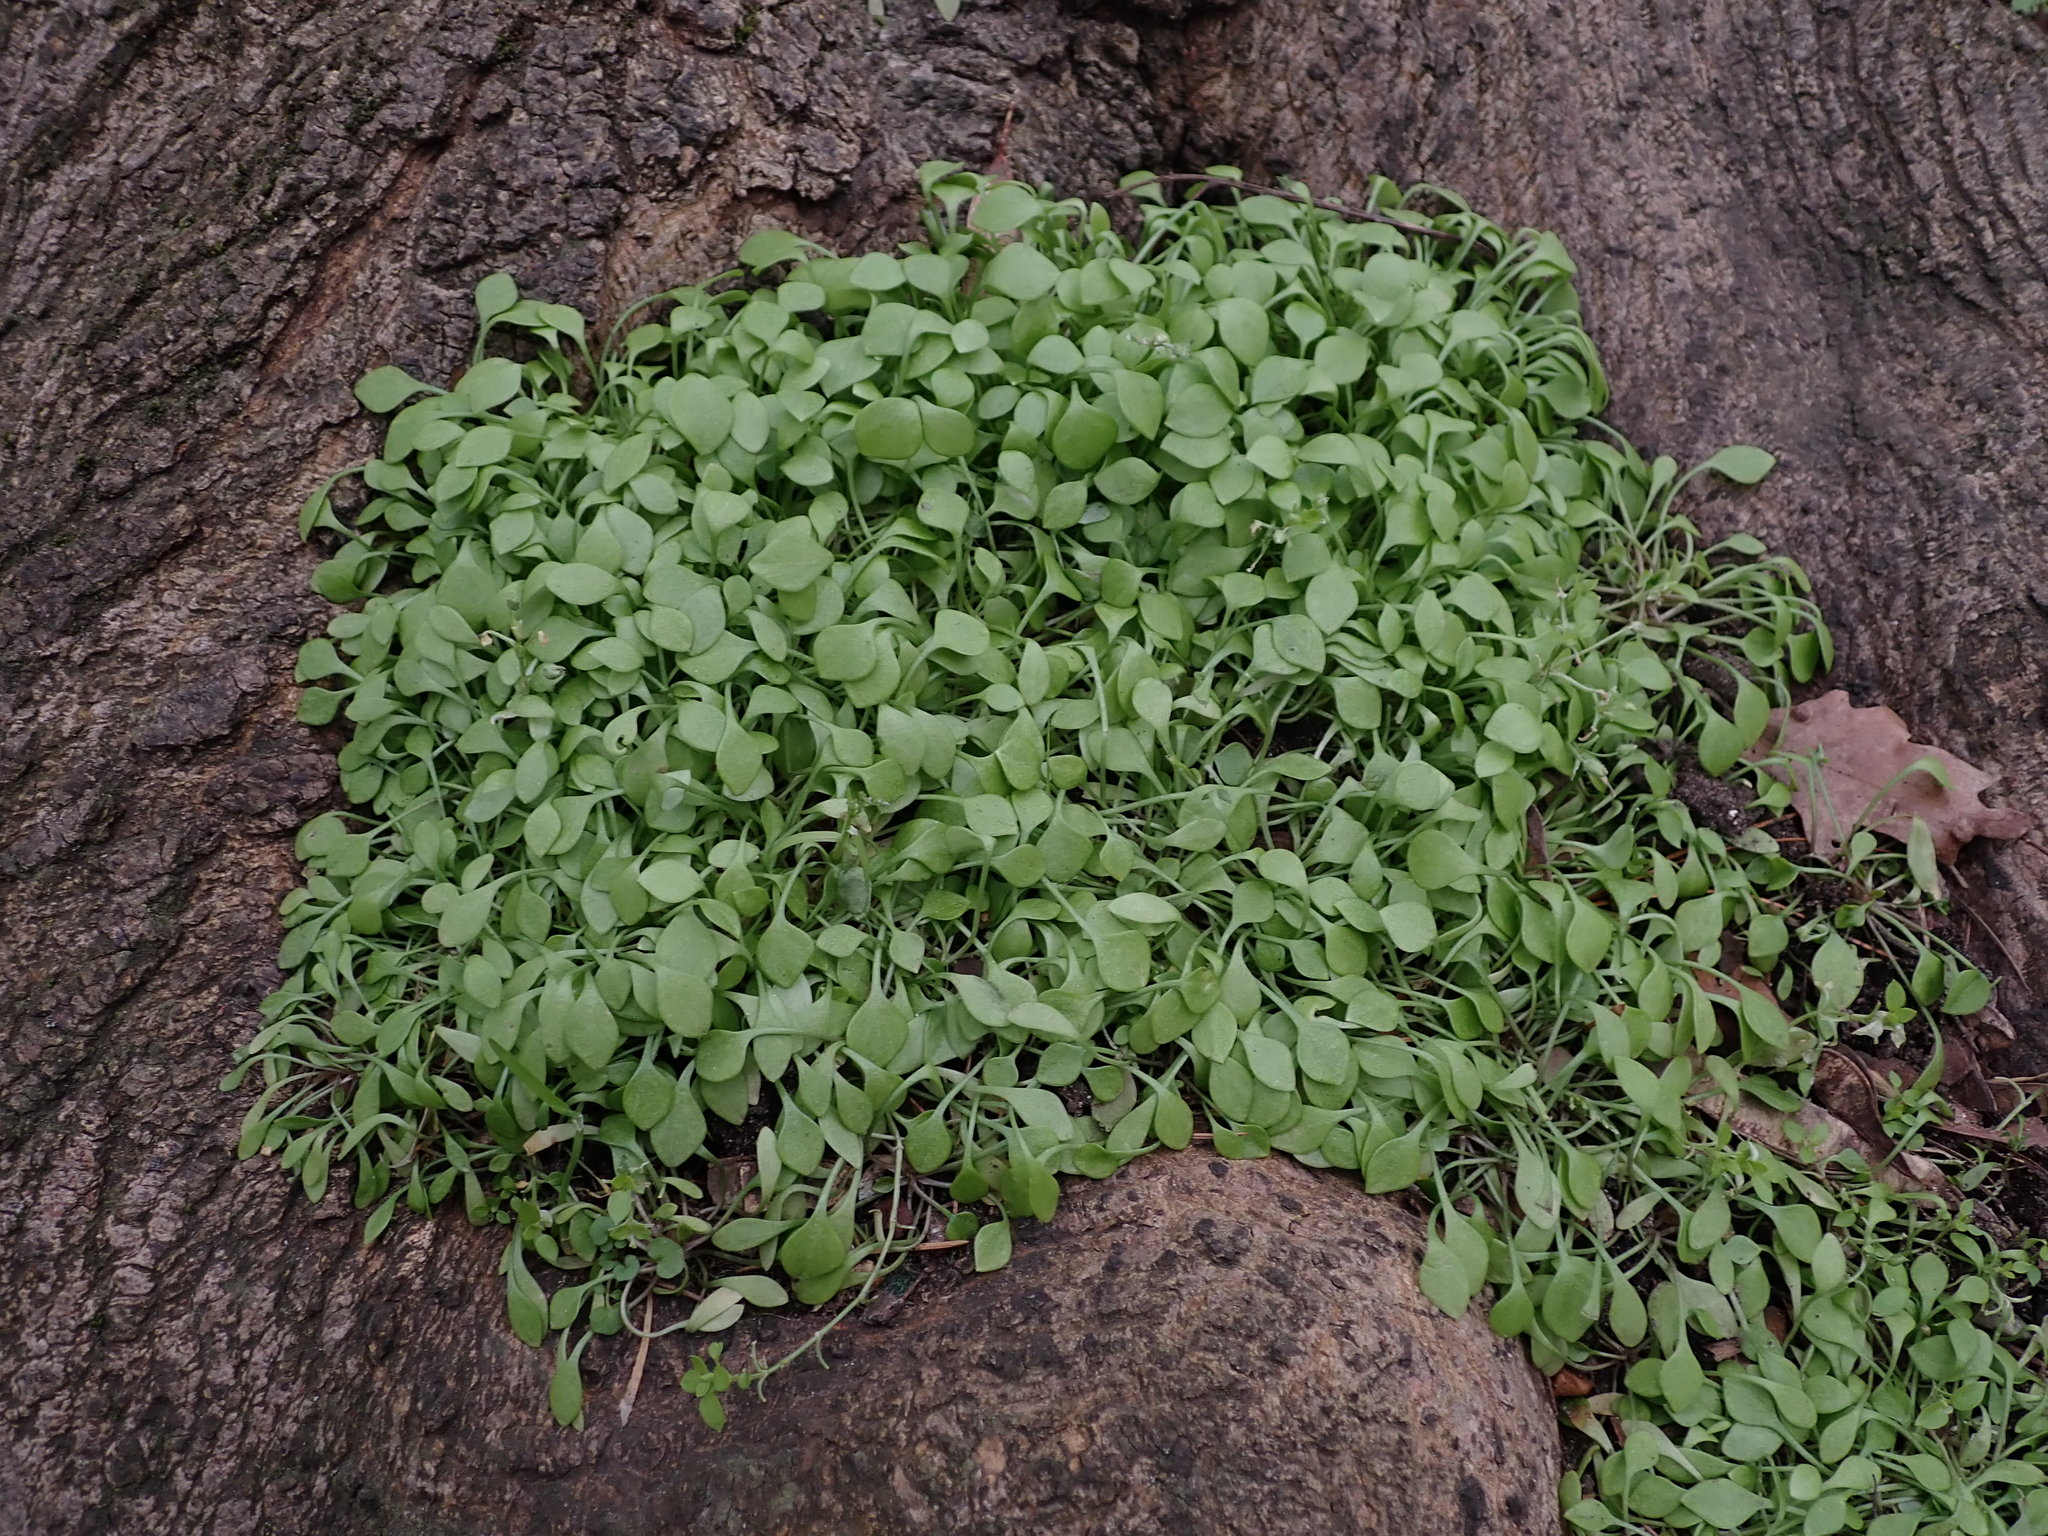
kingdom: Plantae
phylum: Tracheophyta
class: Magnoliopsida
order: Caryophyllales
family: Montiaceae
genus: Claytonia
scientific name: Claytonia perfoliata
